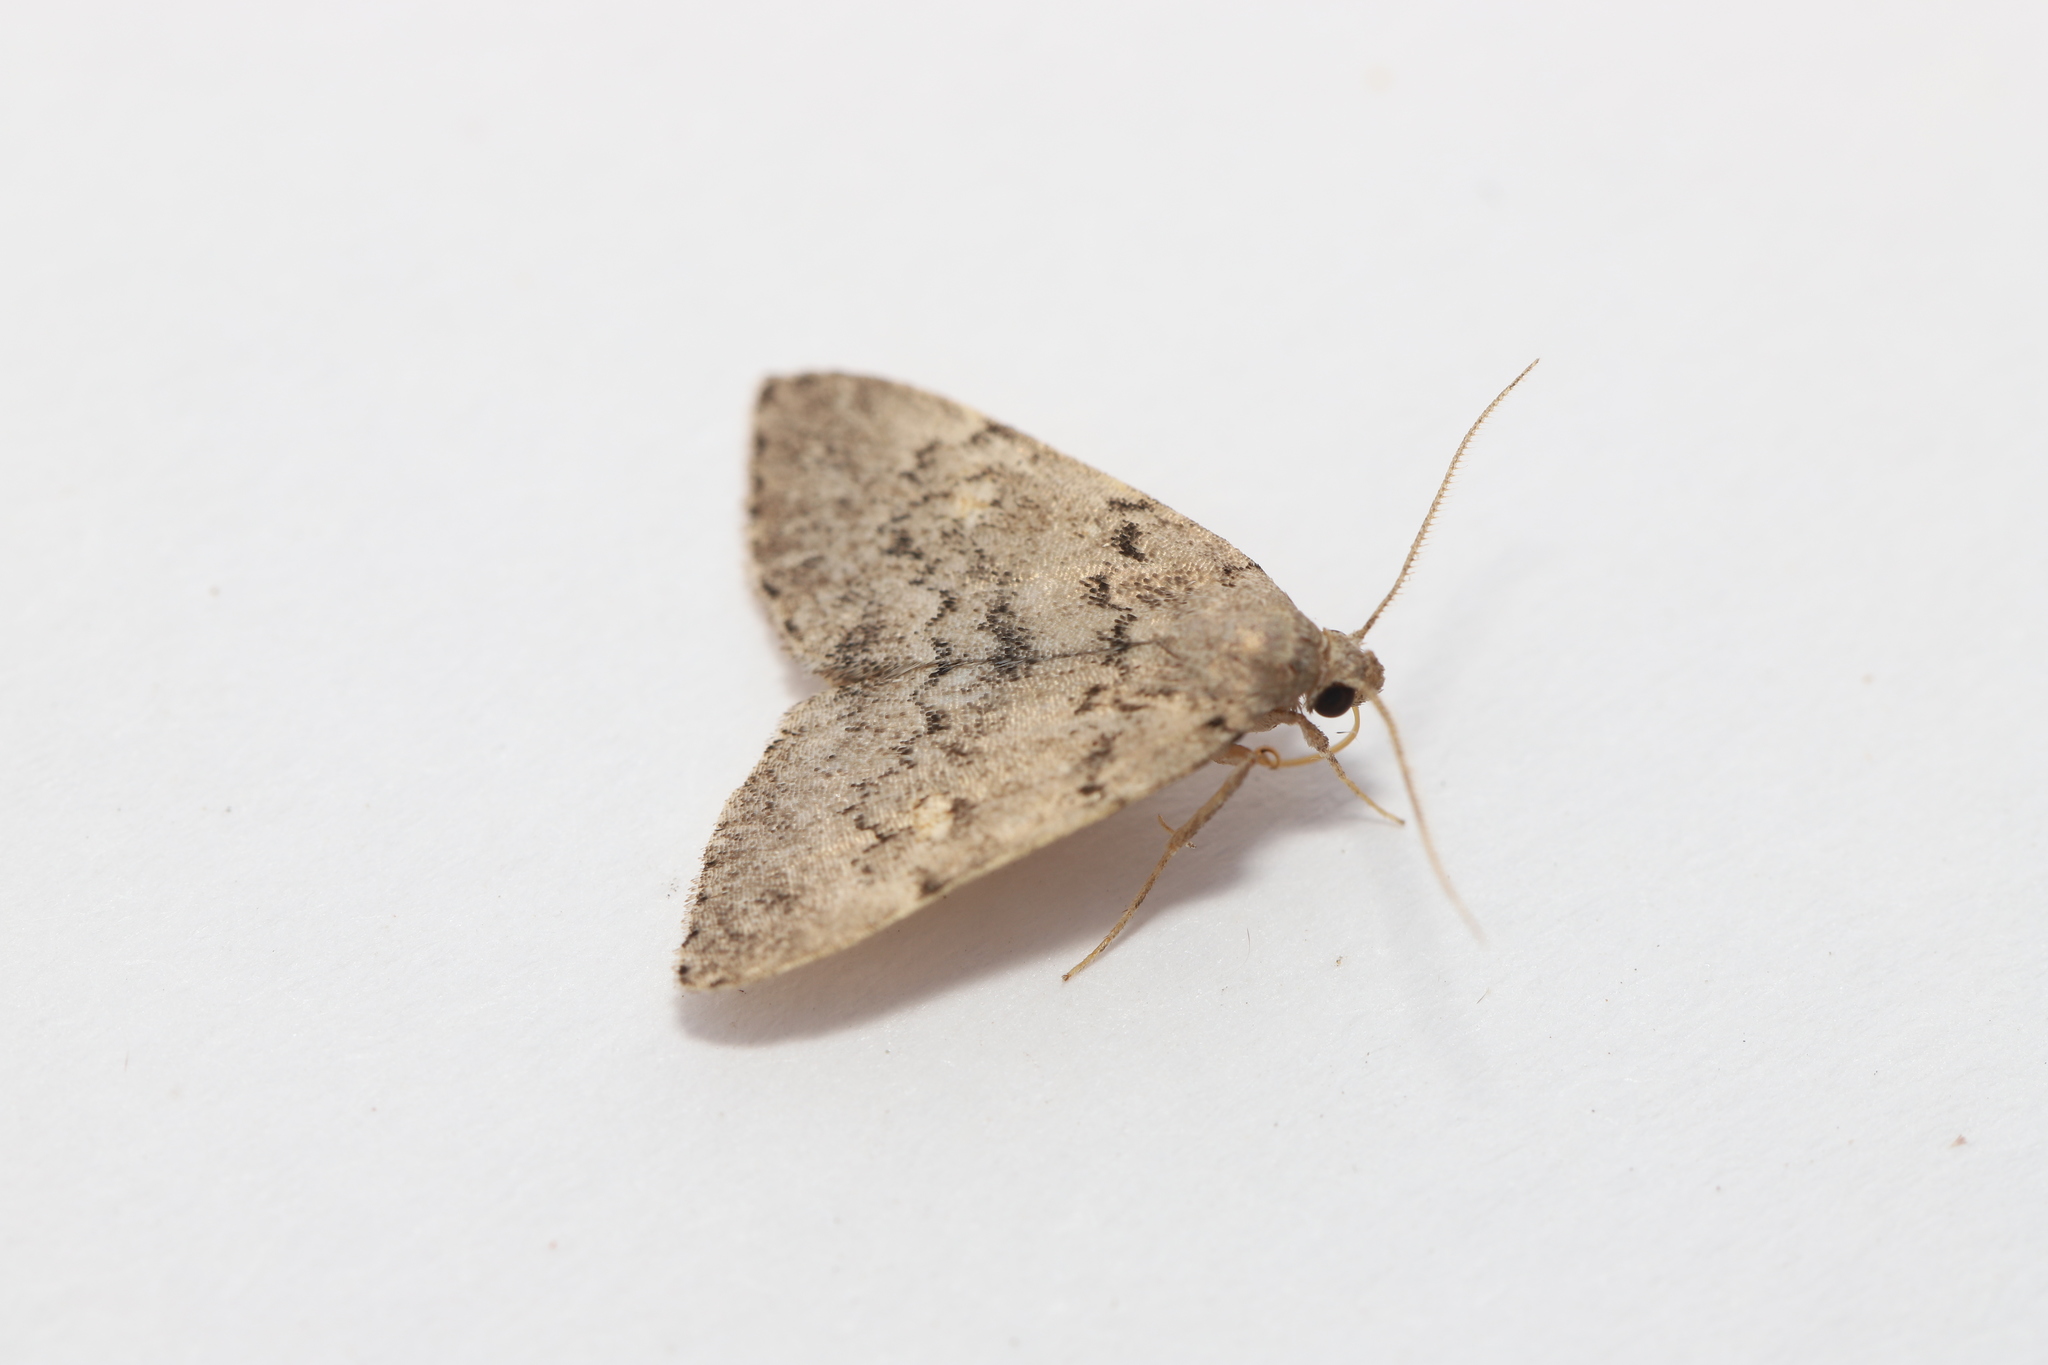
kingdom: Animalia
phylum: Arthropoda
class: Insecta
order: Lepidoptera
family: Erebidae
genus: Idia
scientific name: Idia aemula
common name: Common idia moth
